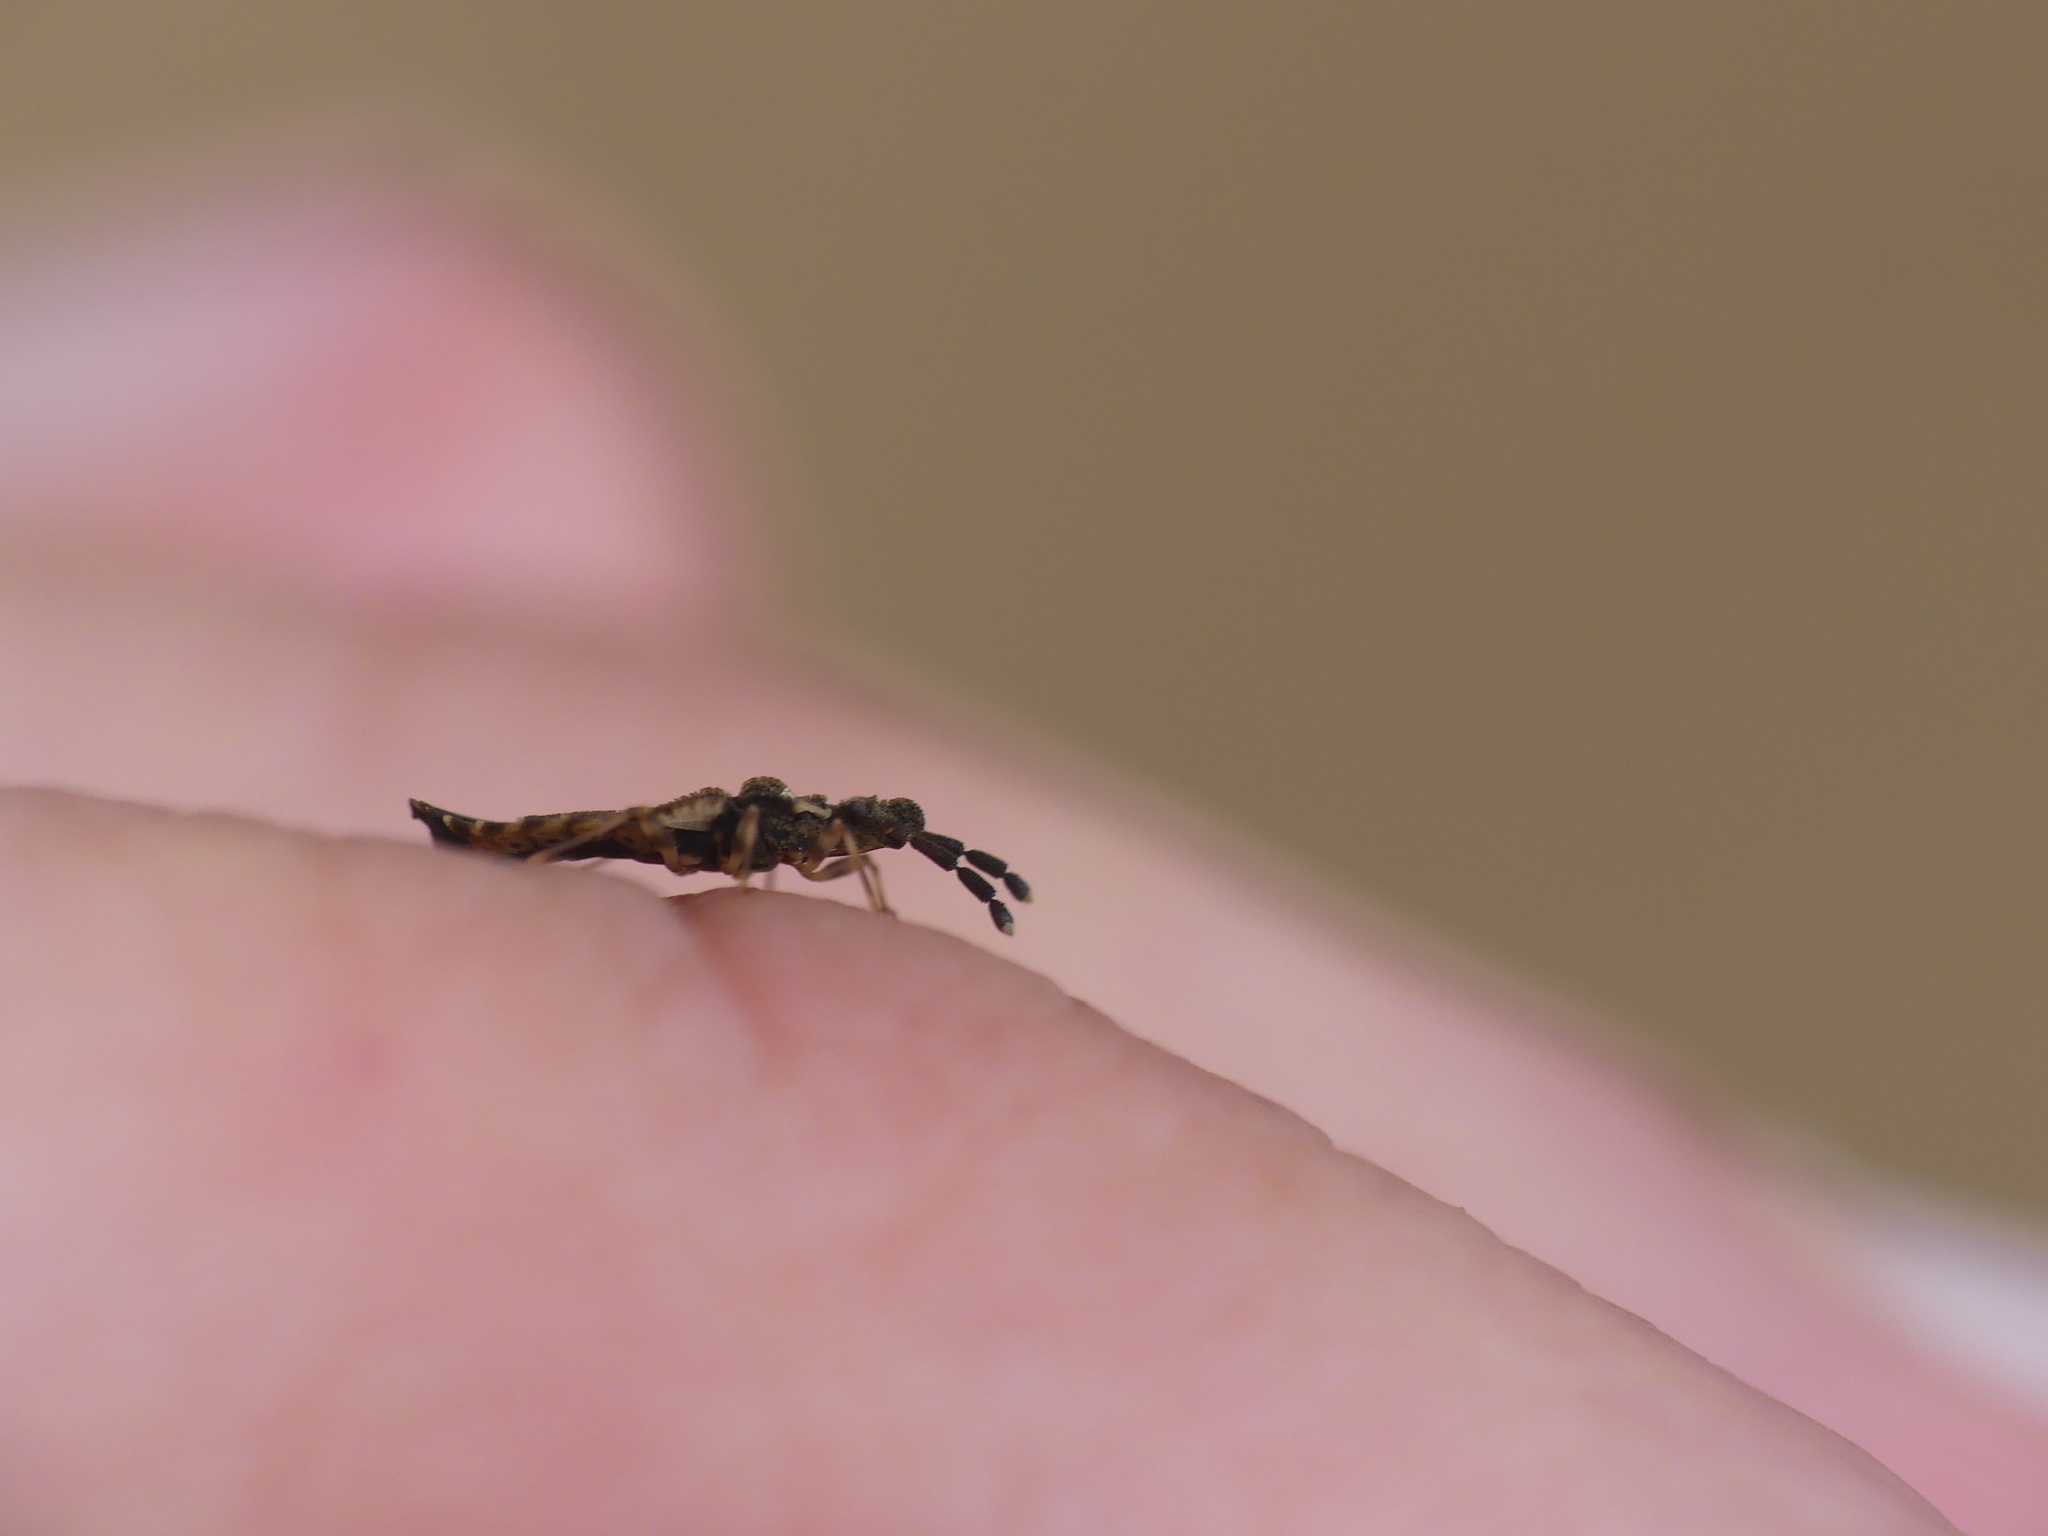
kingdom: Animalia
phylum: Arthropoda
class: Insecta
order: Hemiptera
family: Aradidae
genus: Aradus
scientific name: Aradus depressus
